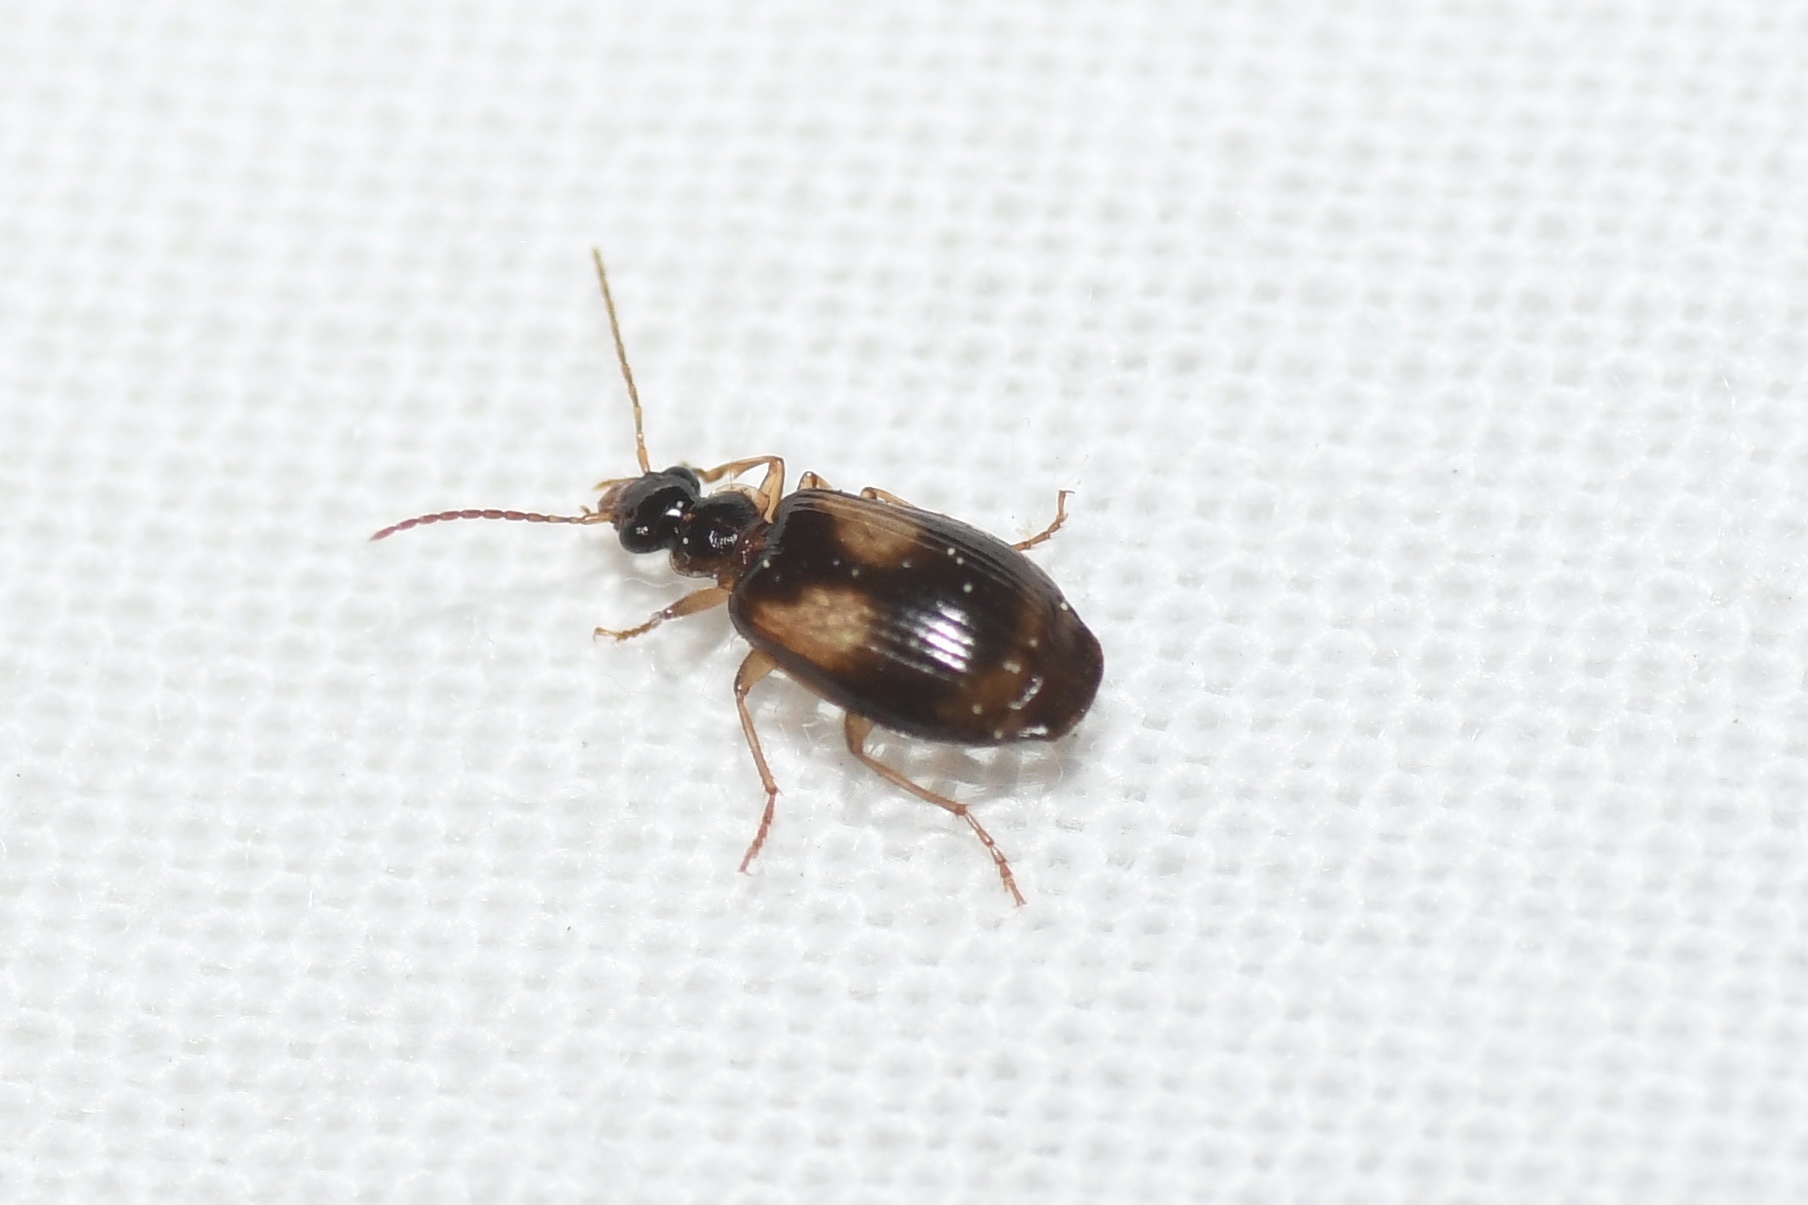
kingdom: Animalia
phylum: Arthropoda
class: Insecta
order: Coleoptera
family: Carabidae
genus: Lebia
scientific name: Lebia ornata
